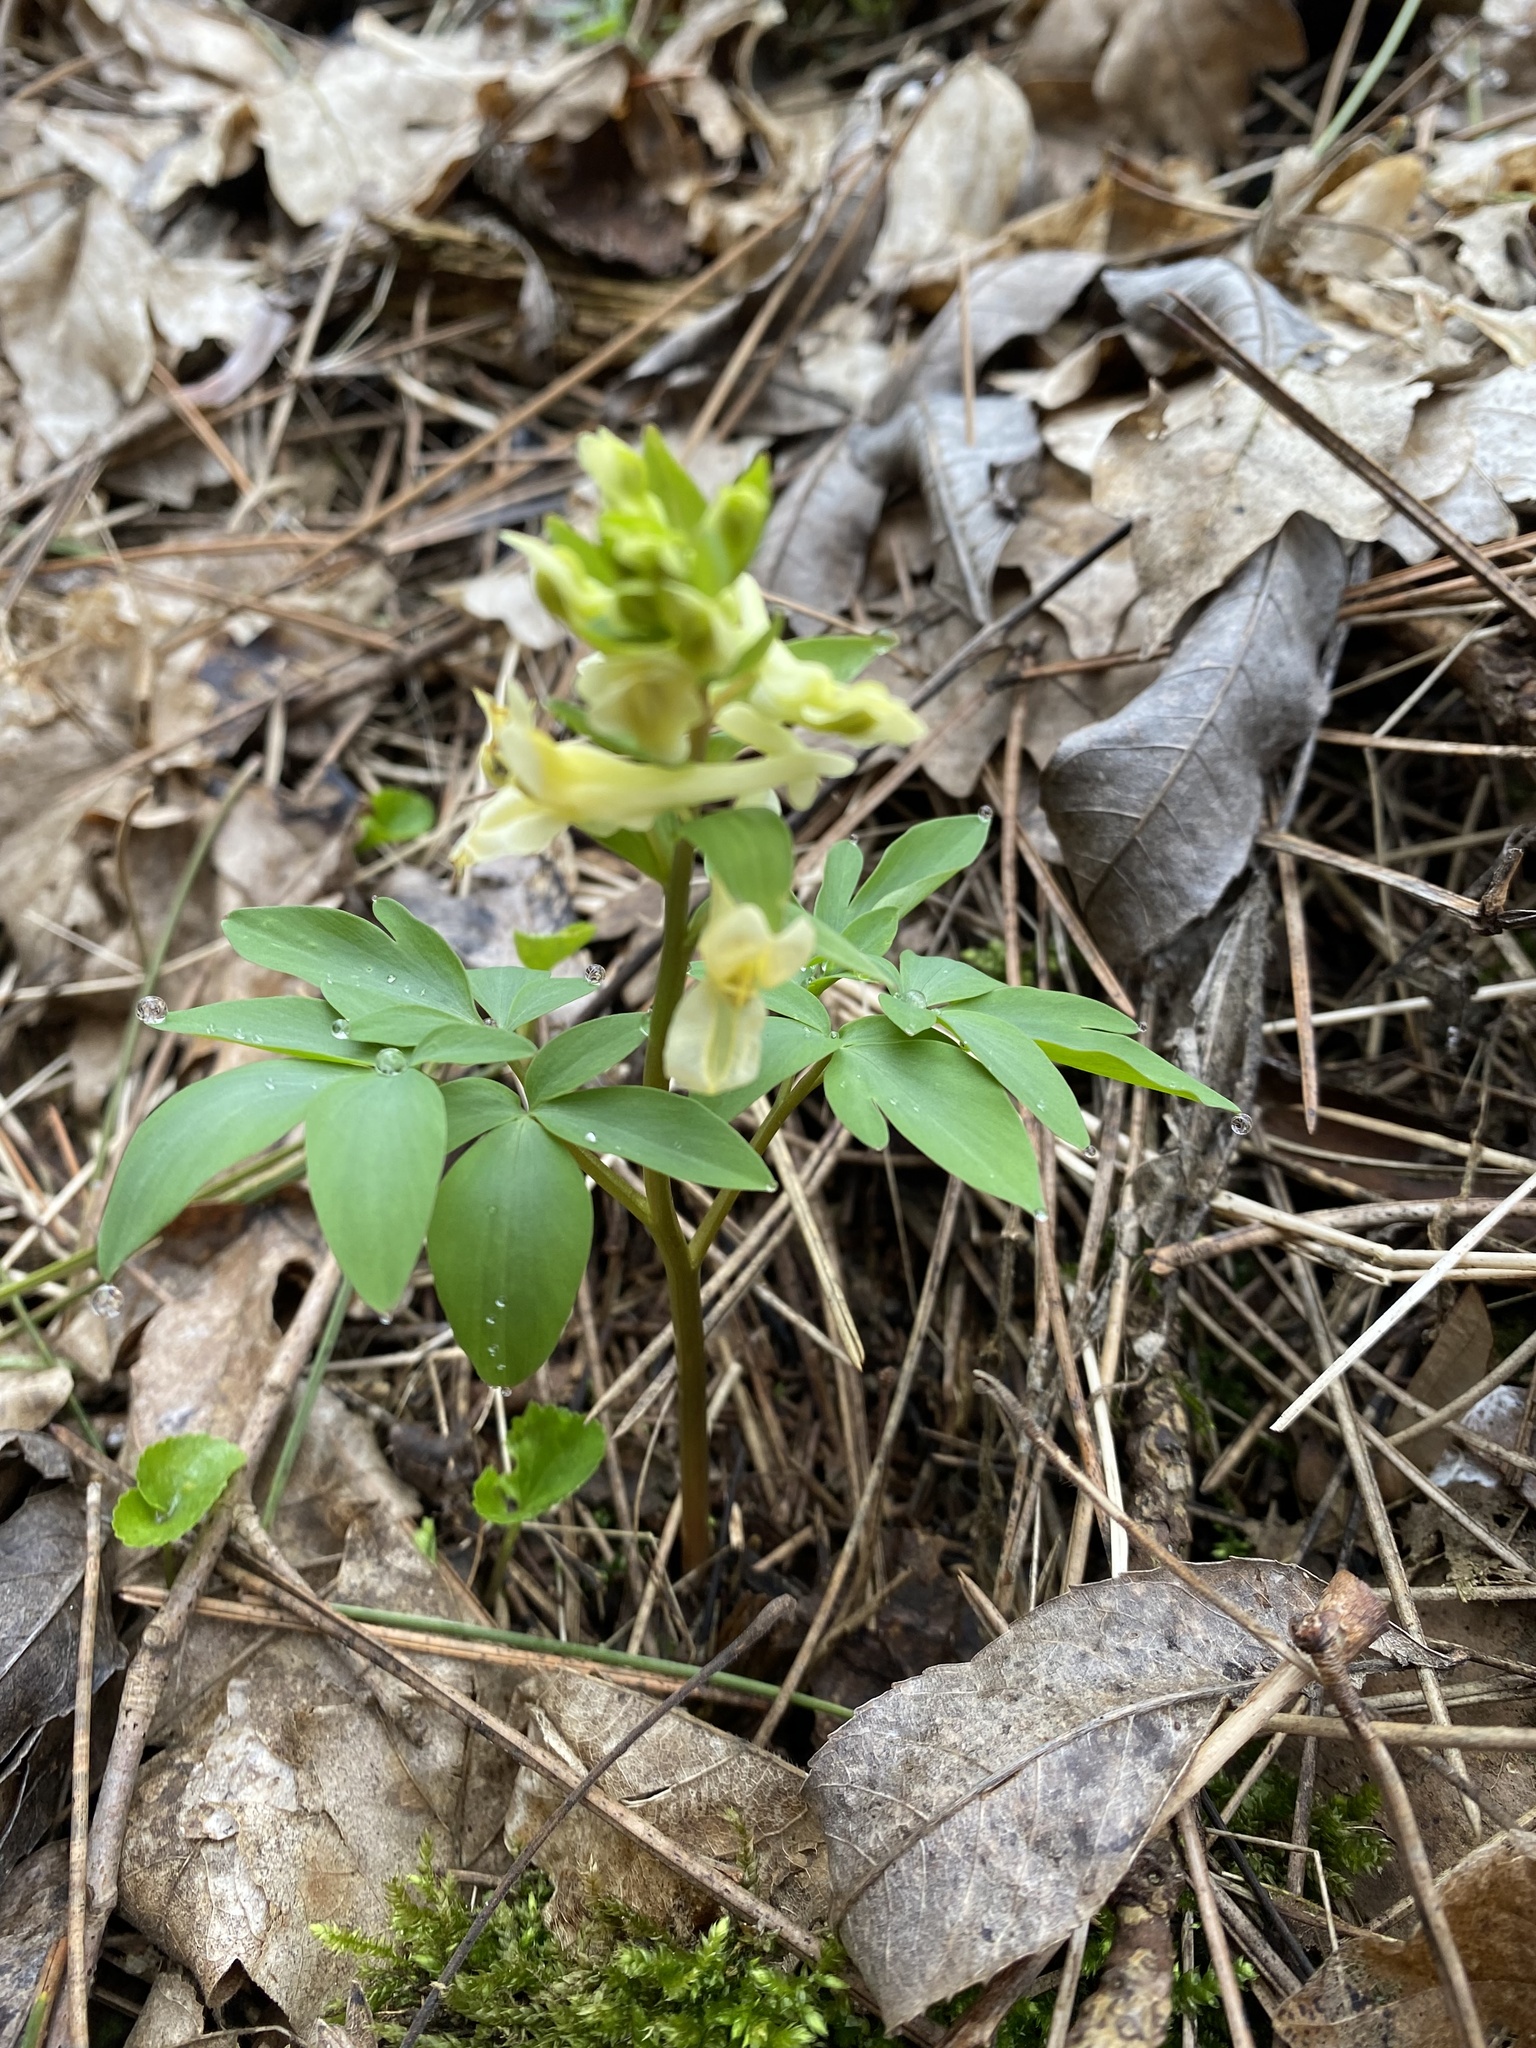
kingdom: Plantae
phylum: Tracheophyta
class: Magnoliopsida
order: Ranunculales
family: Papaveraceae
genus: Corydalis
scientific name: Corydalis cava
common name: Hollowroot
